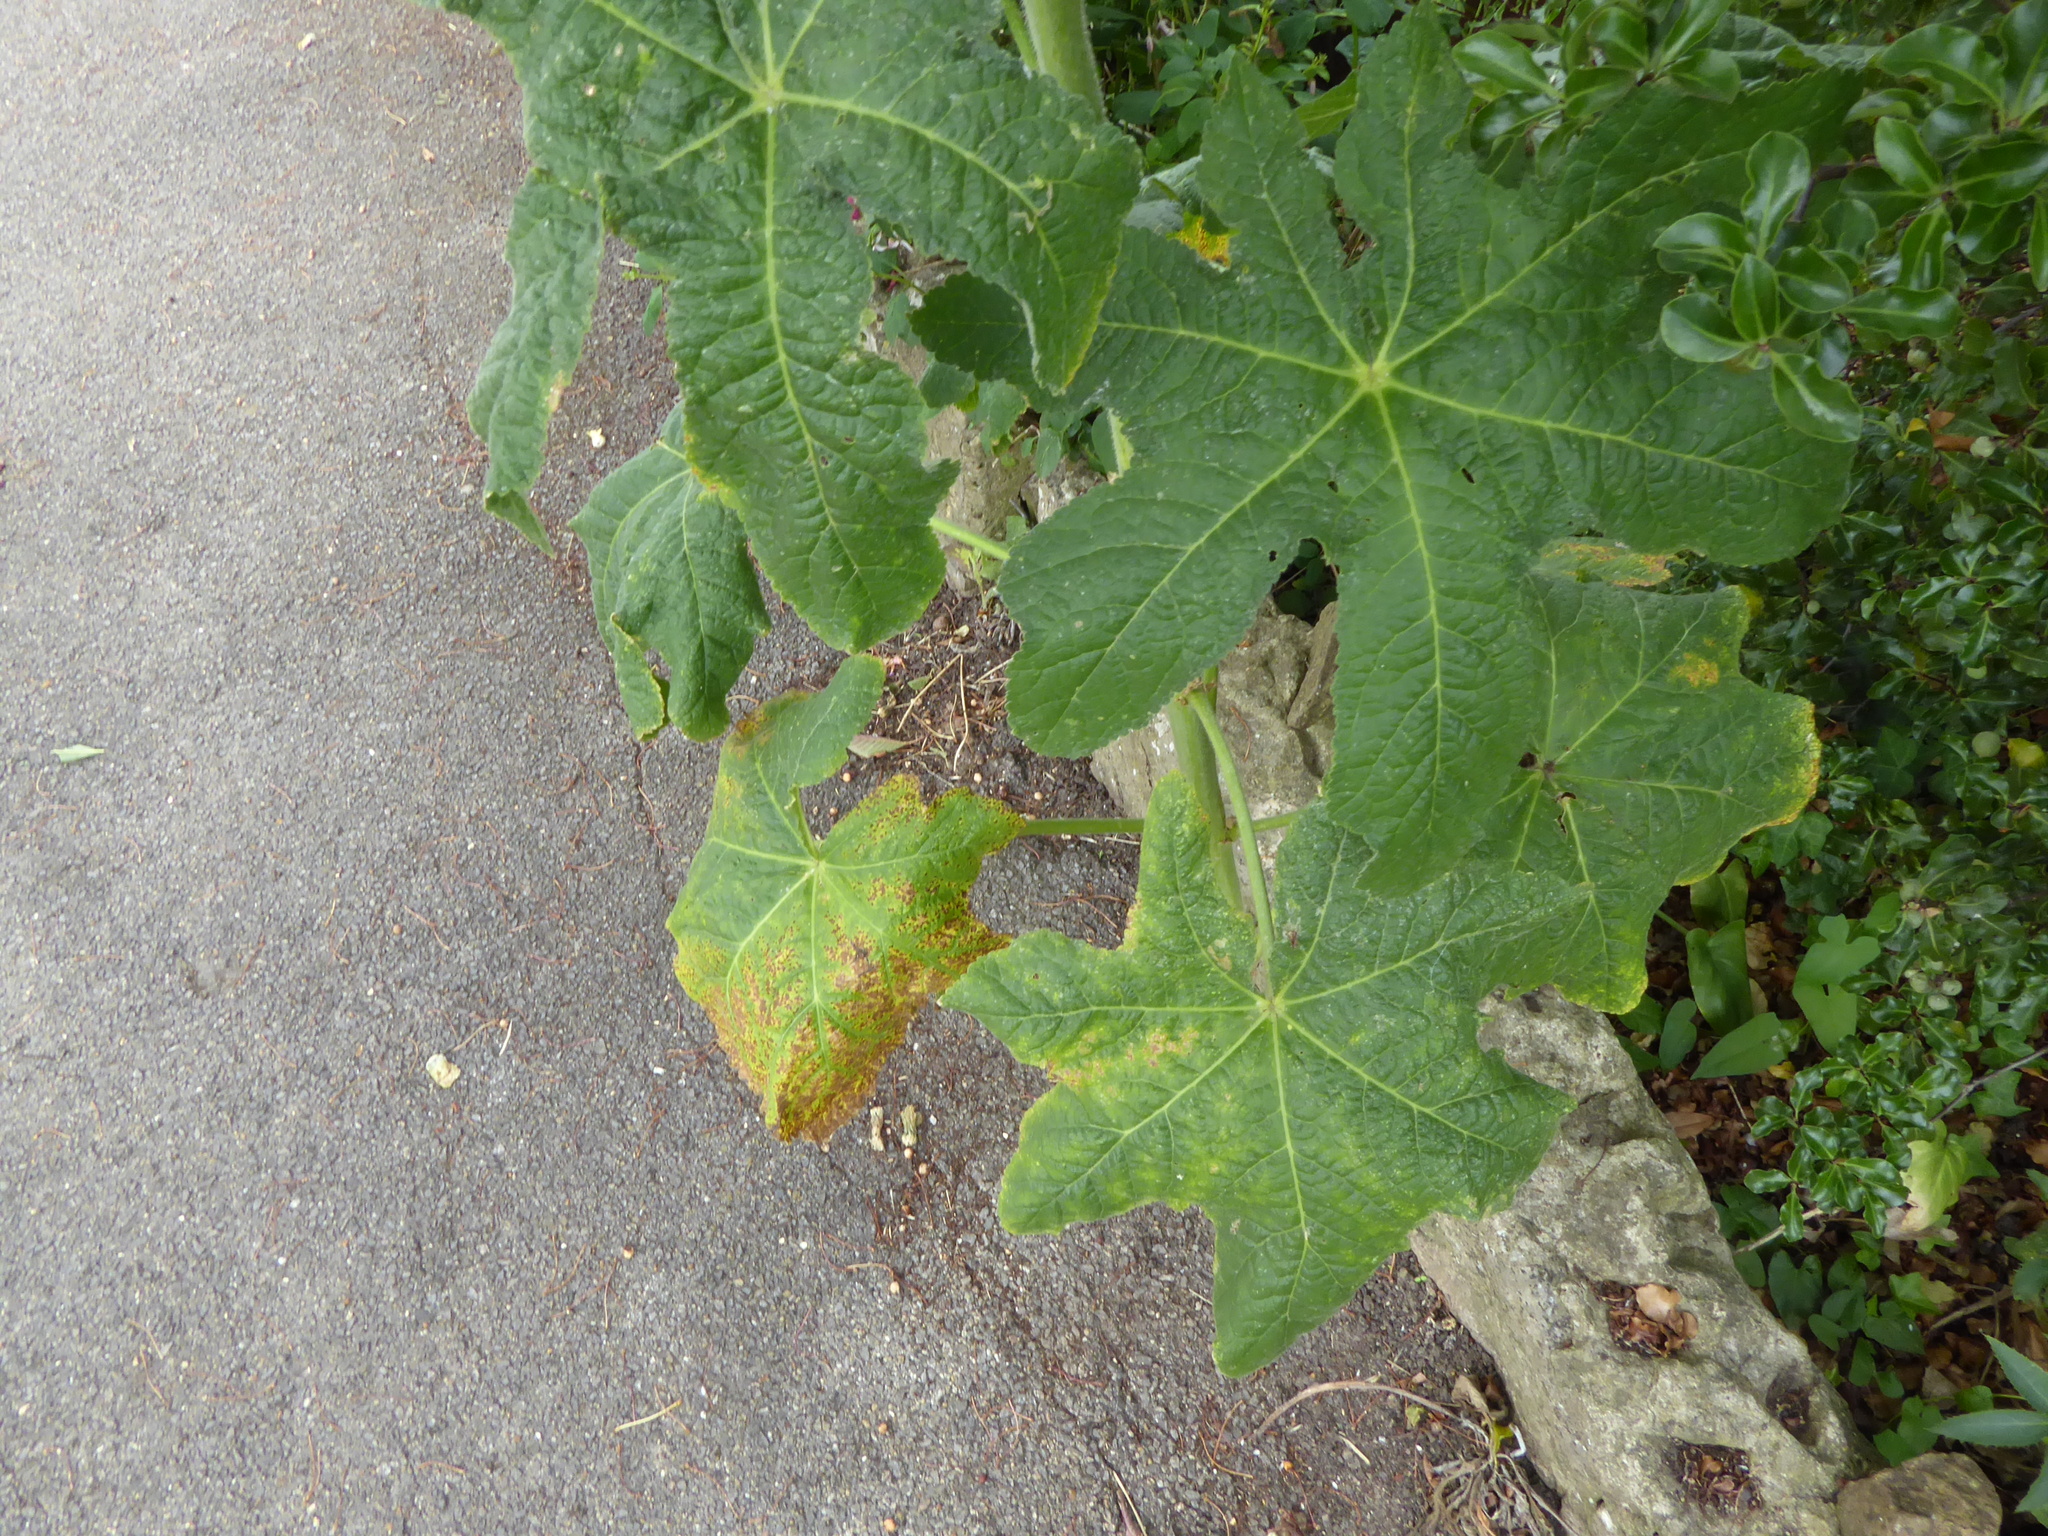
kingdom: Plantae
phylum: Tracheophyta
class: Magnoliopsida
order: Malvales
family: Malvaceae
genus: Alcea
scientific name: Alcea rosea
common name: Hollyhock
